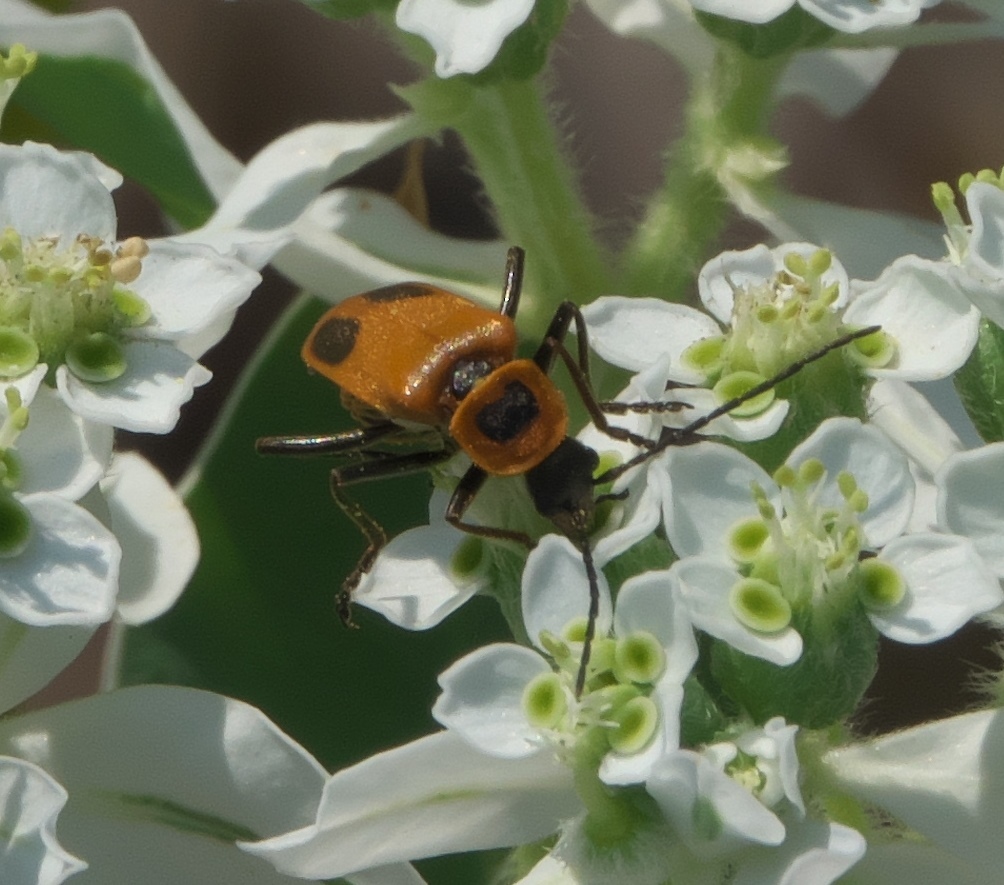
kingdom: Animalia
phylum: Arthropoda
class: Insecta
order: Coleoptera
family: Cantharidae
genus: Chauliognathus
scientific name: Chauliognathus pensylvanicus
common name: Goldenrod soldier beetle
